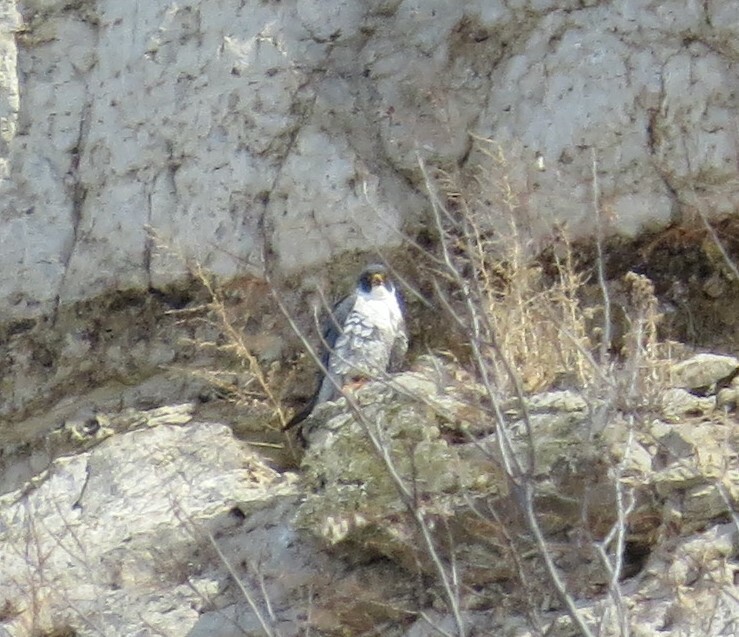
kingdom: Animalia
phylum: Chordata
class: Aves
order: Falconiformes
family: Falconidae
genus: Falco
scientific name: Falco peregrinus
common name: Peregrine falcon
